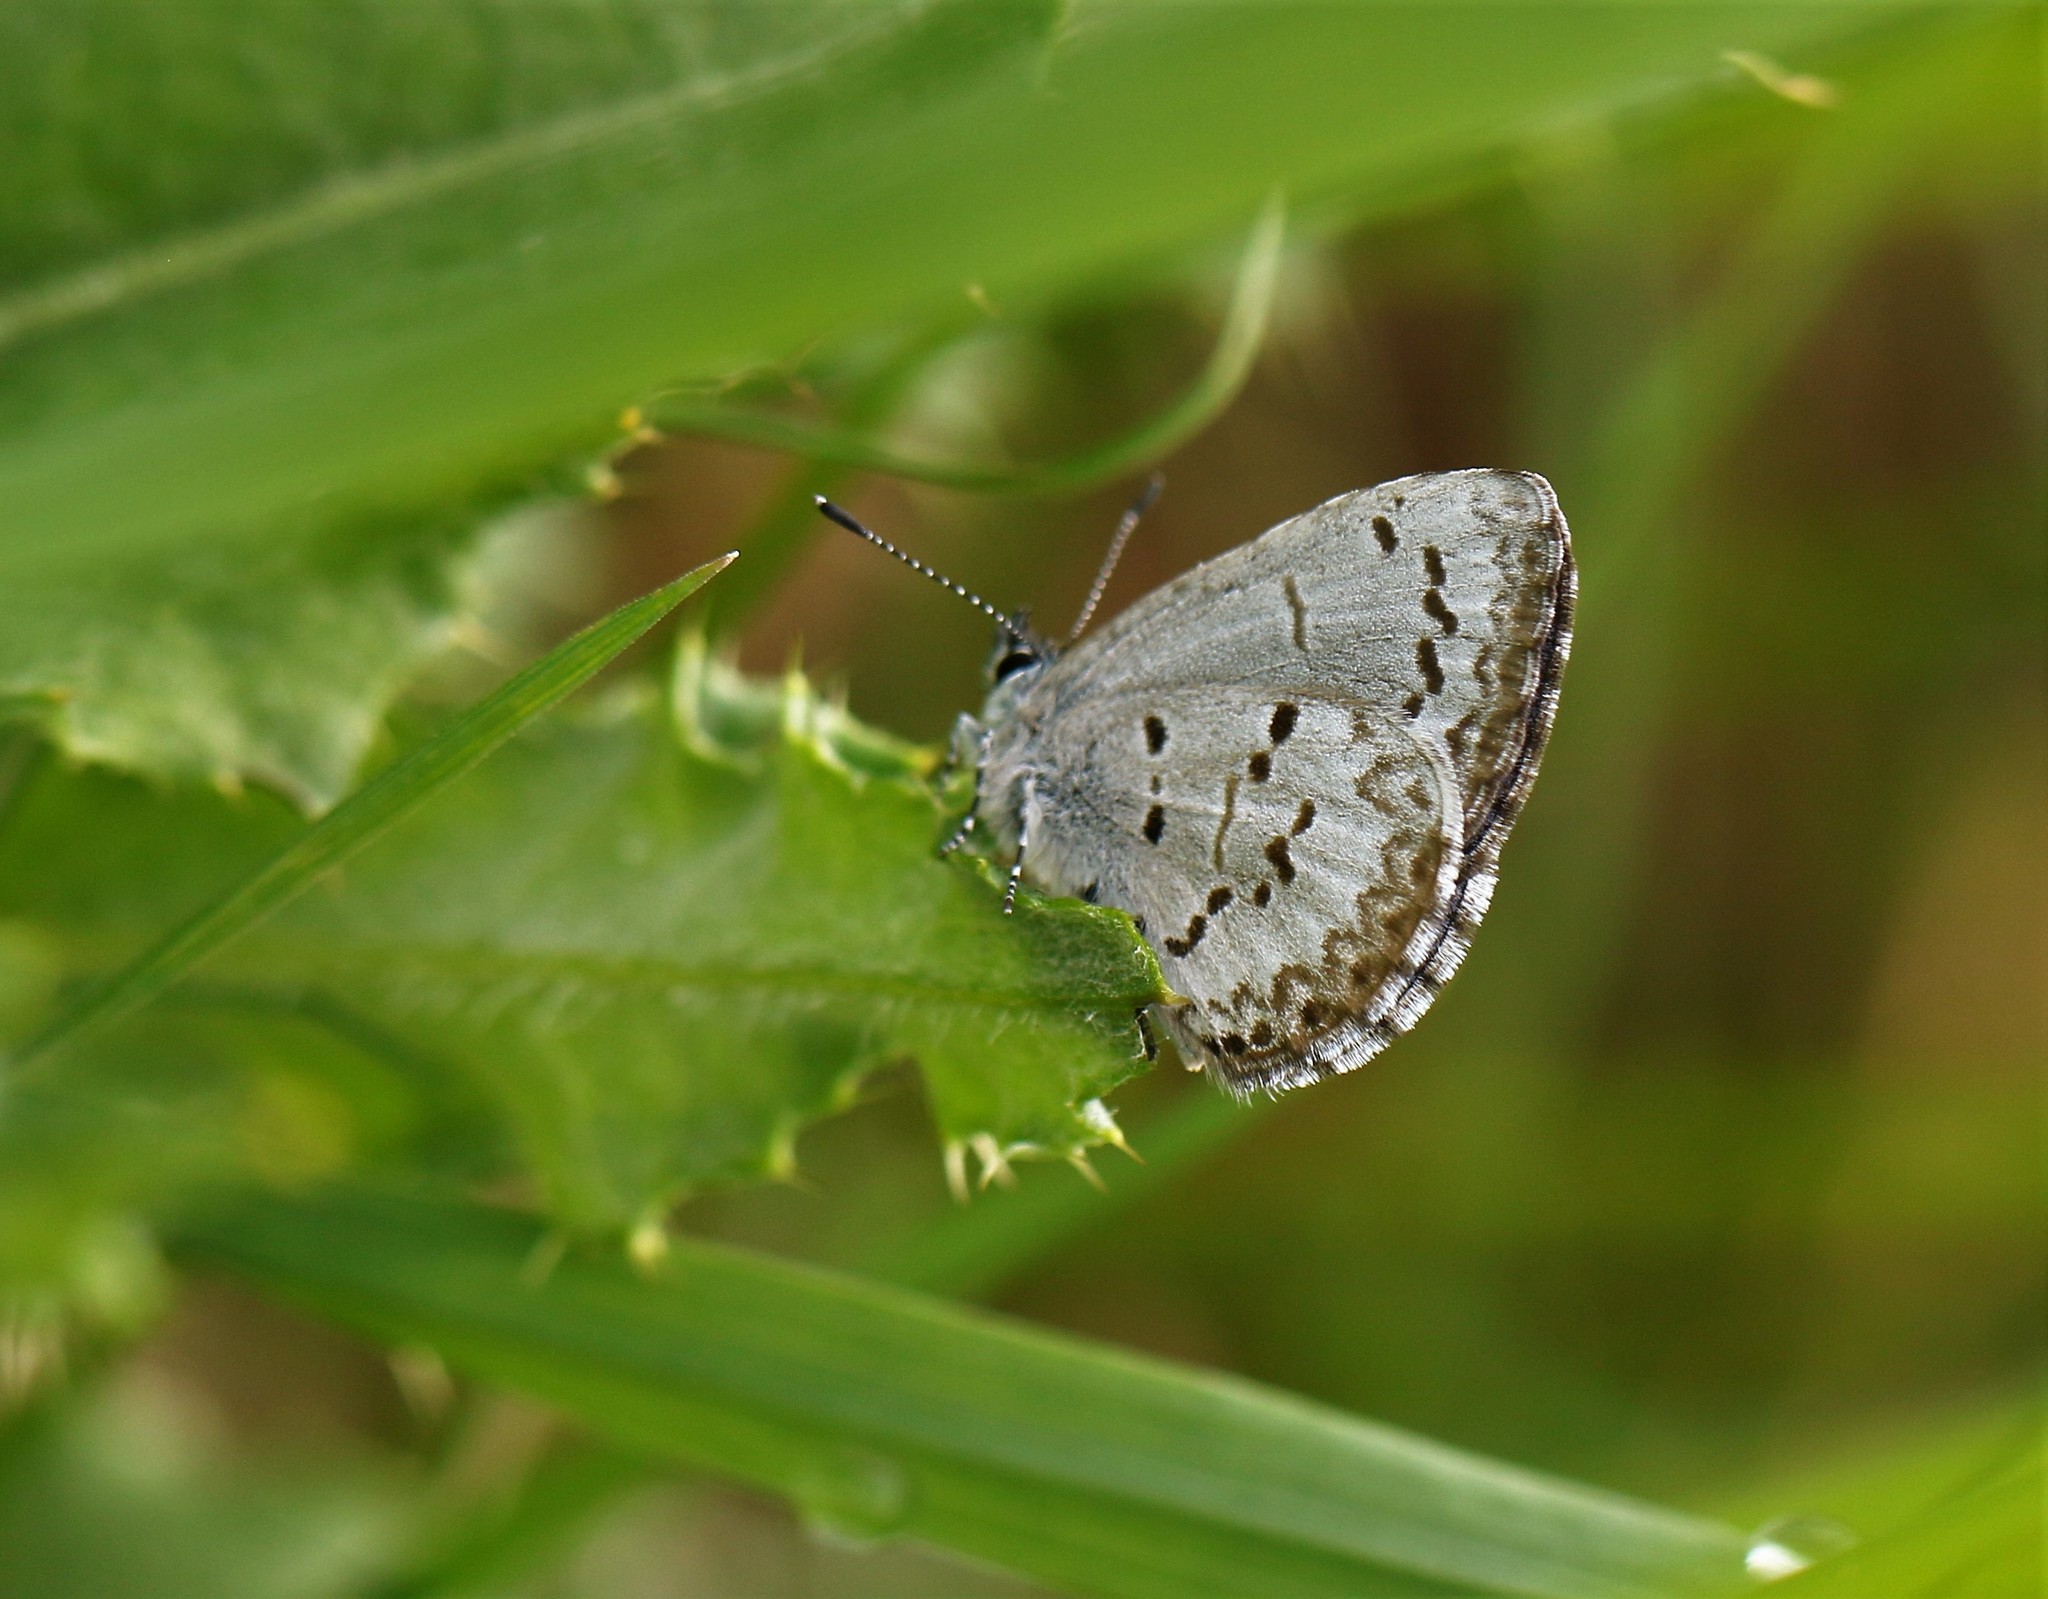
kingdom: Animalia
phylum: Arthropoda
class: Insecta
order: Lepidoptera
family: Lycaenidae
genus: Celastrina
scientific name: Celastrina lucia
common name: Lucia azure
